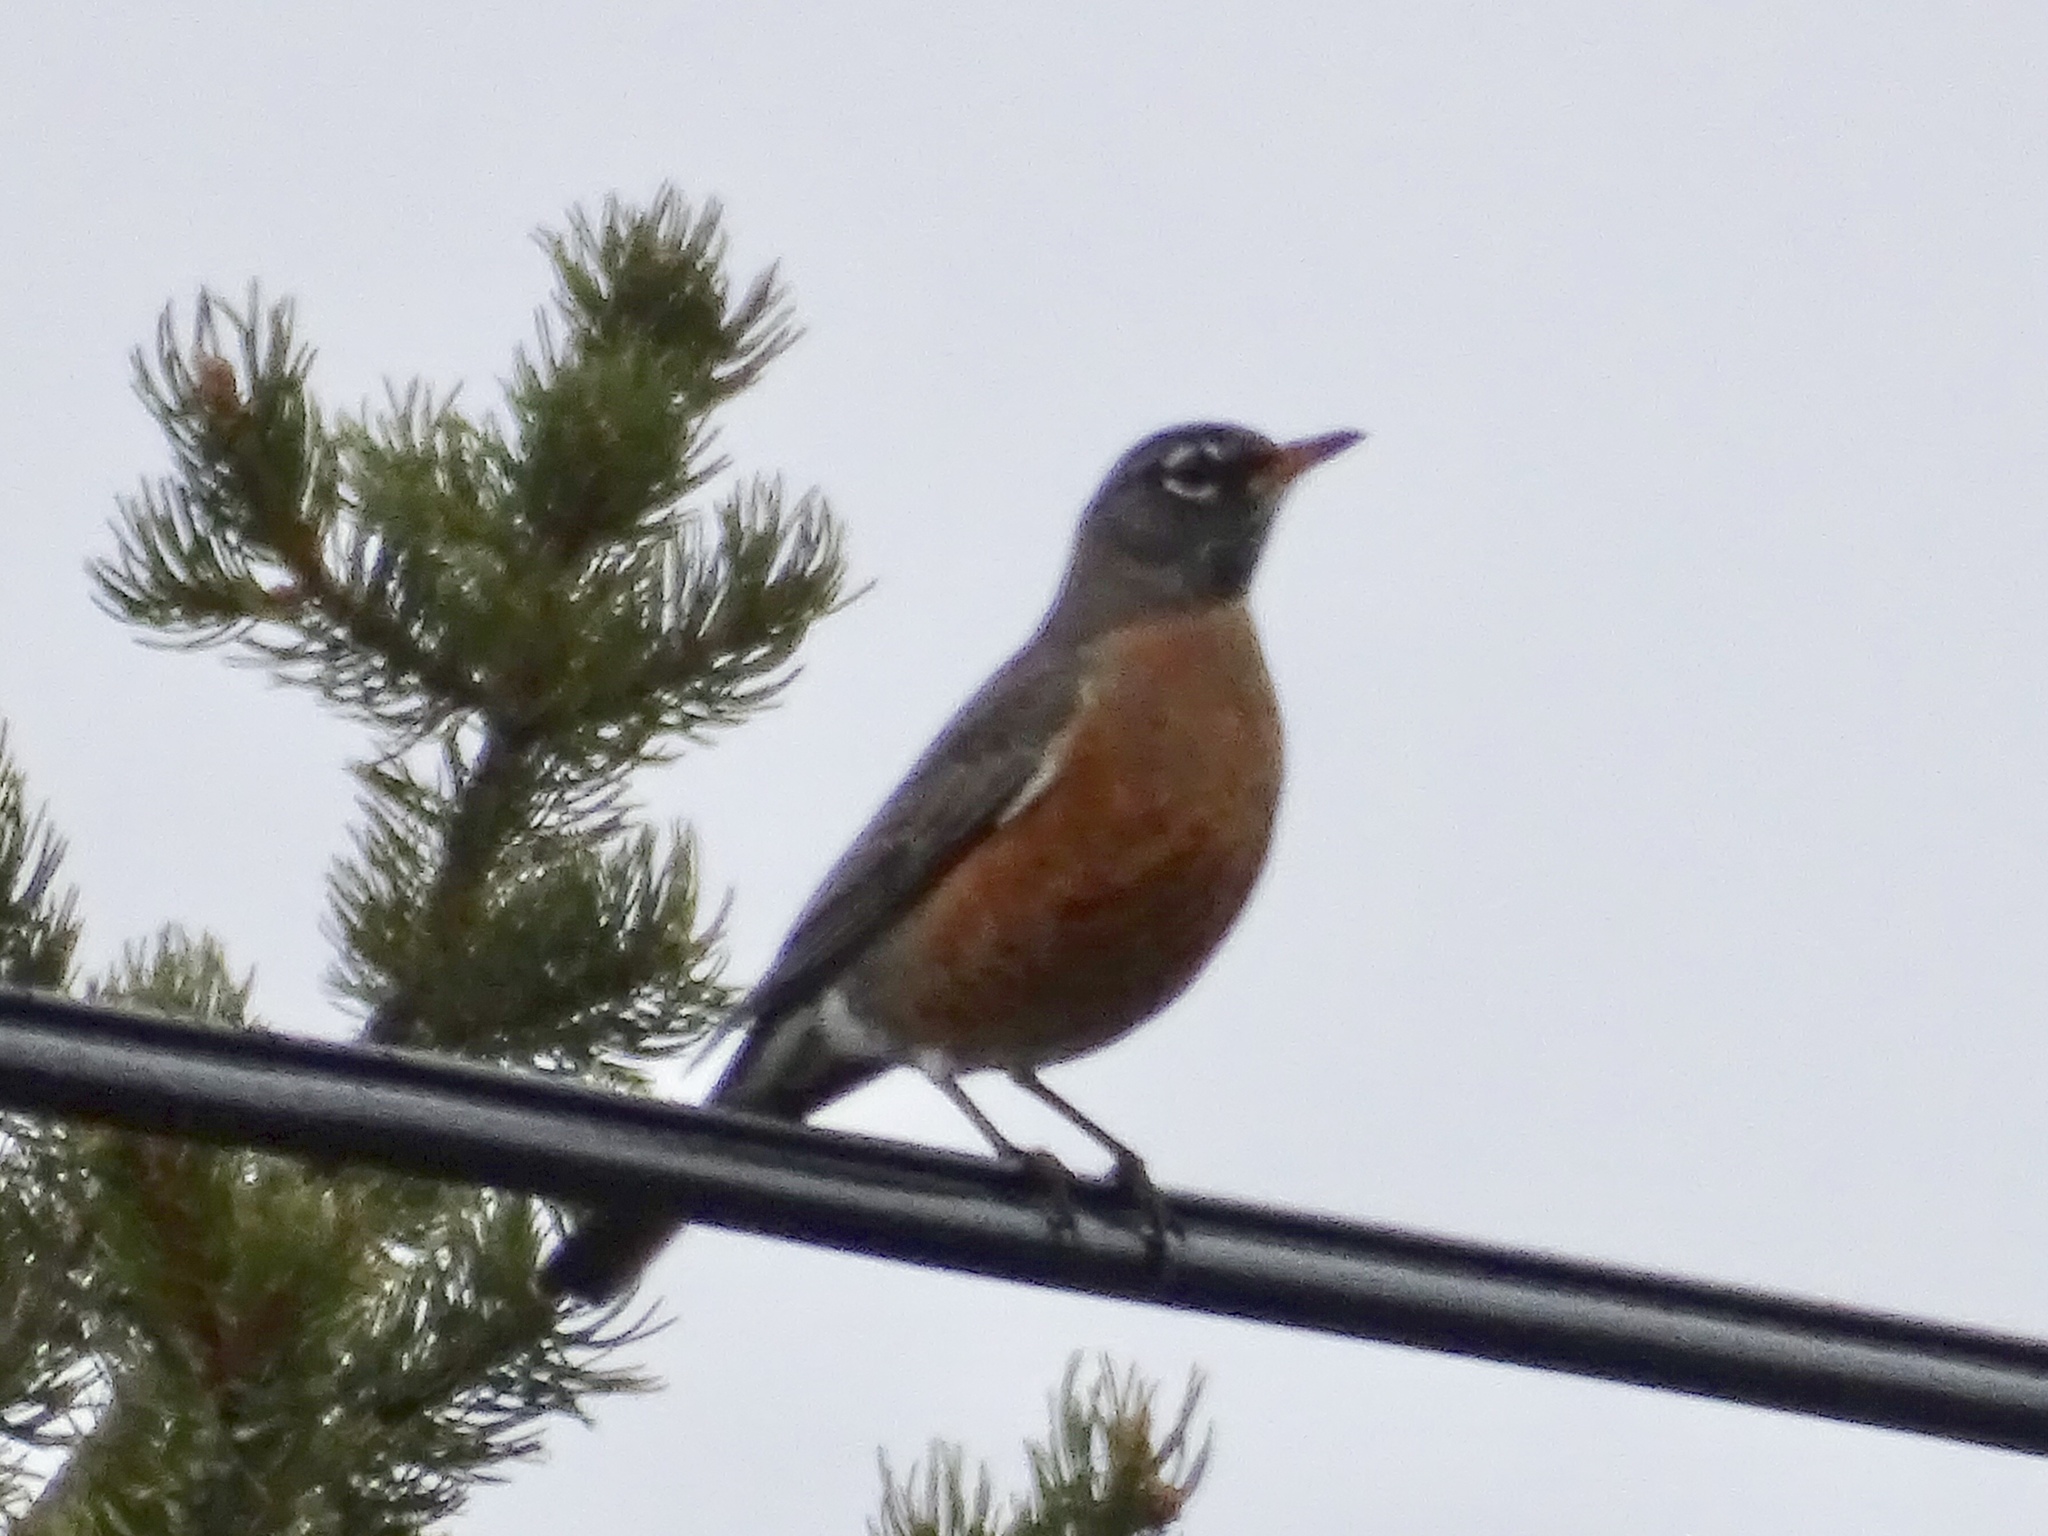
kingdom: Animalia
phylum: Chordata
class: Aves
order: Passeriformes
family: Turdidae
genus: Turdus
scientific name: Turdus migratorius
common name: American robin
